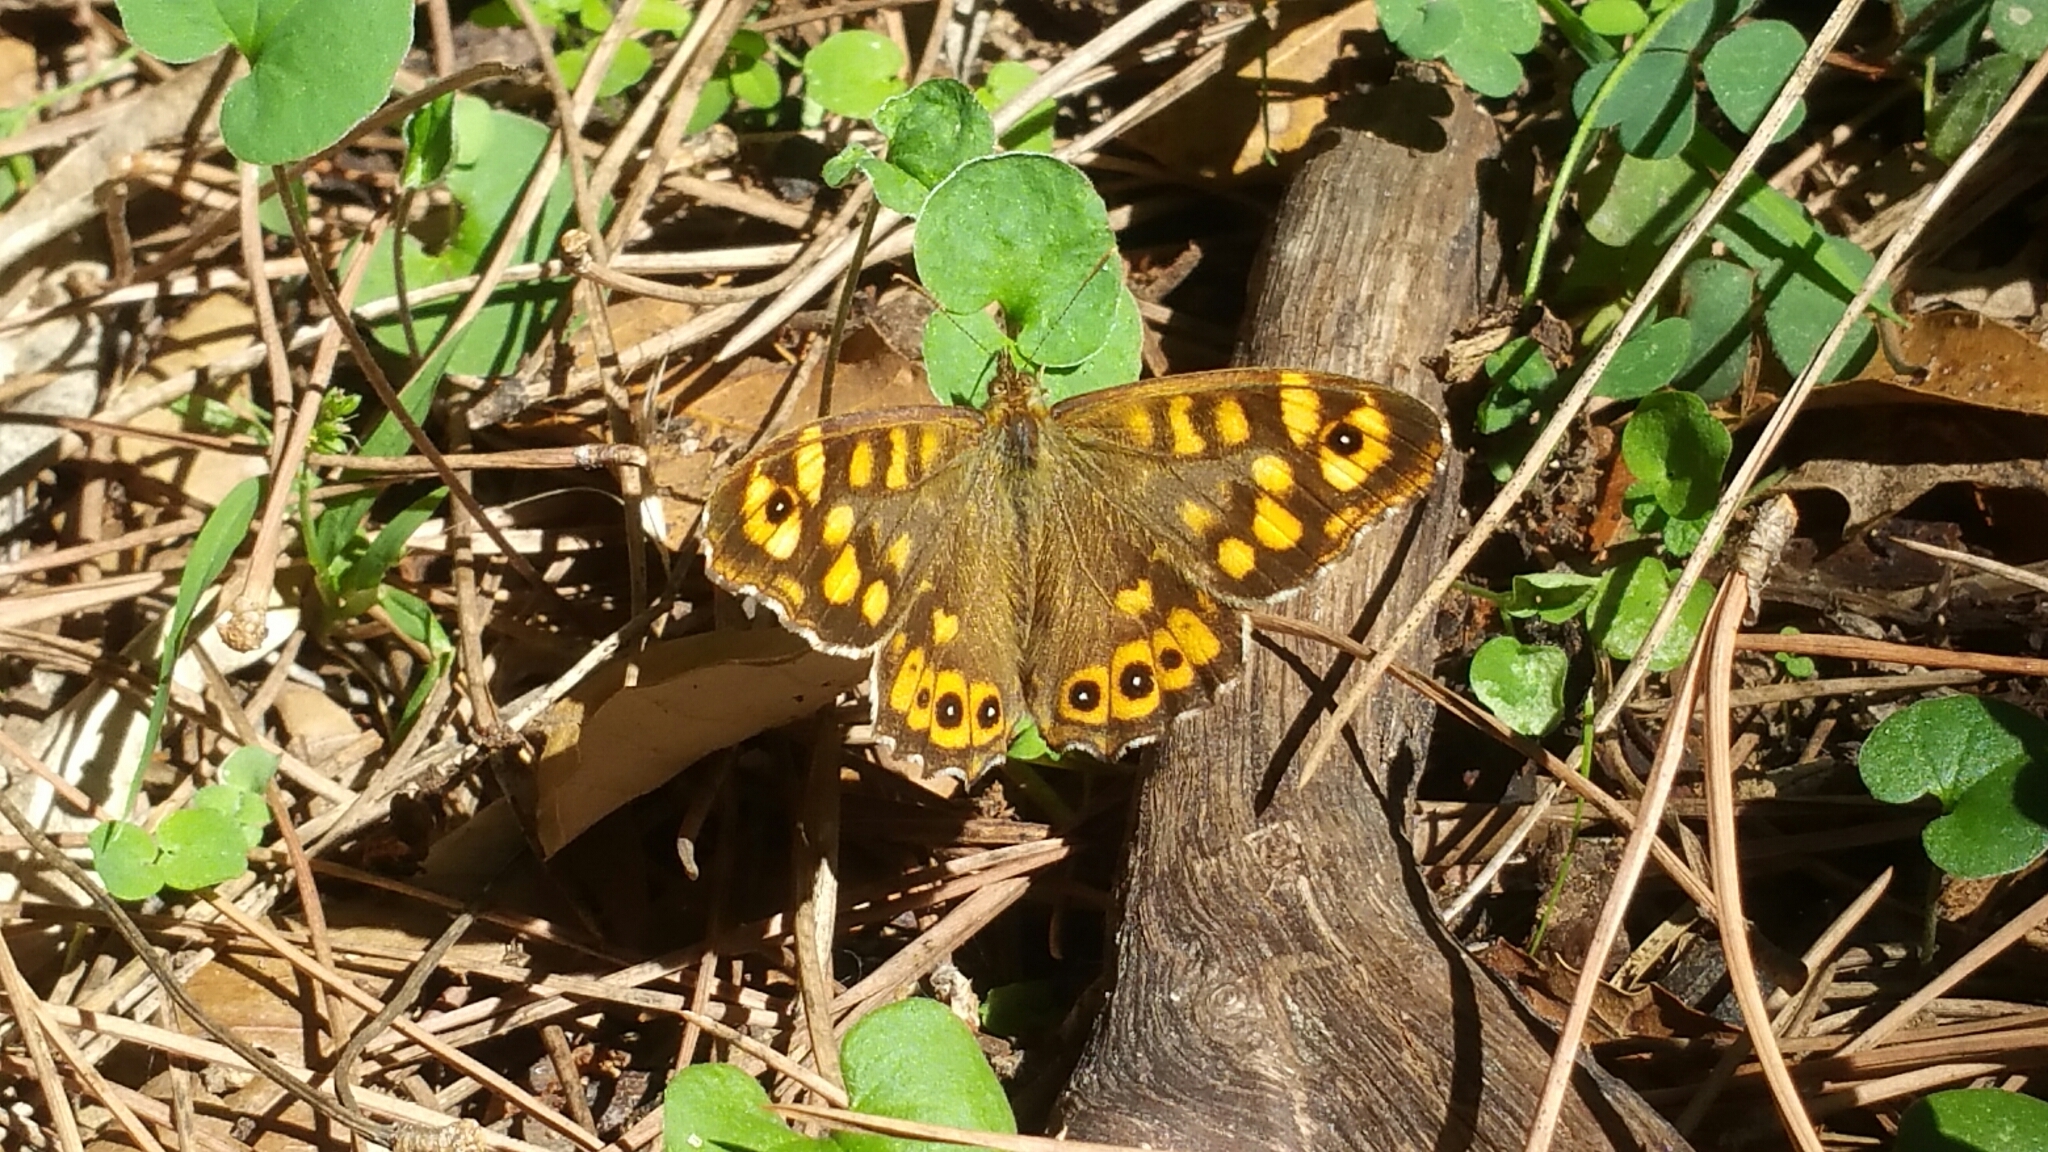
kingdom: Animalia
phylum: Arthropoda
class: Insecta
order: Lepidoptera
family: Nymphalidae
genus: Pararge
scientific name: Pararge aegeria
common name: Speckled wood
